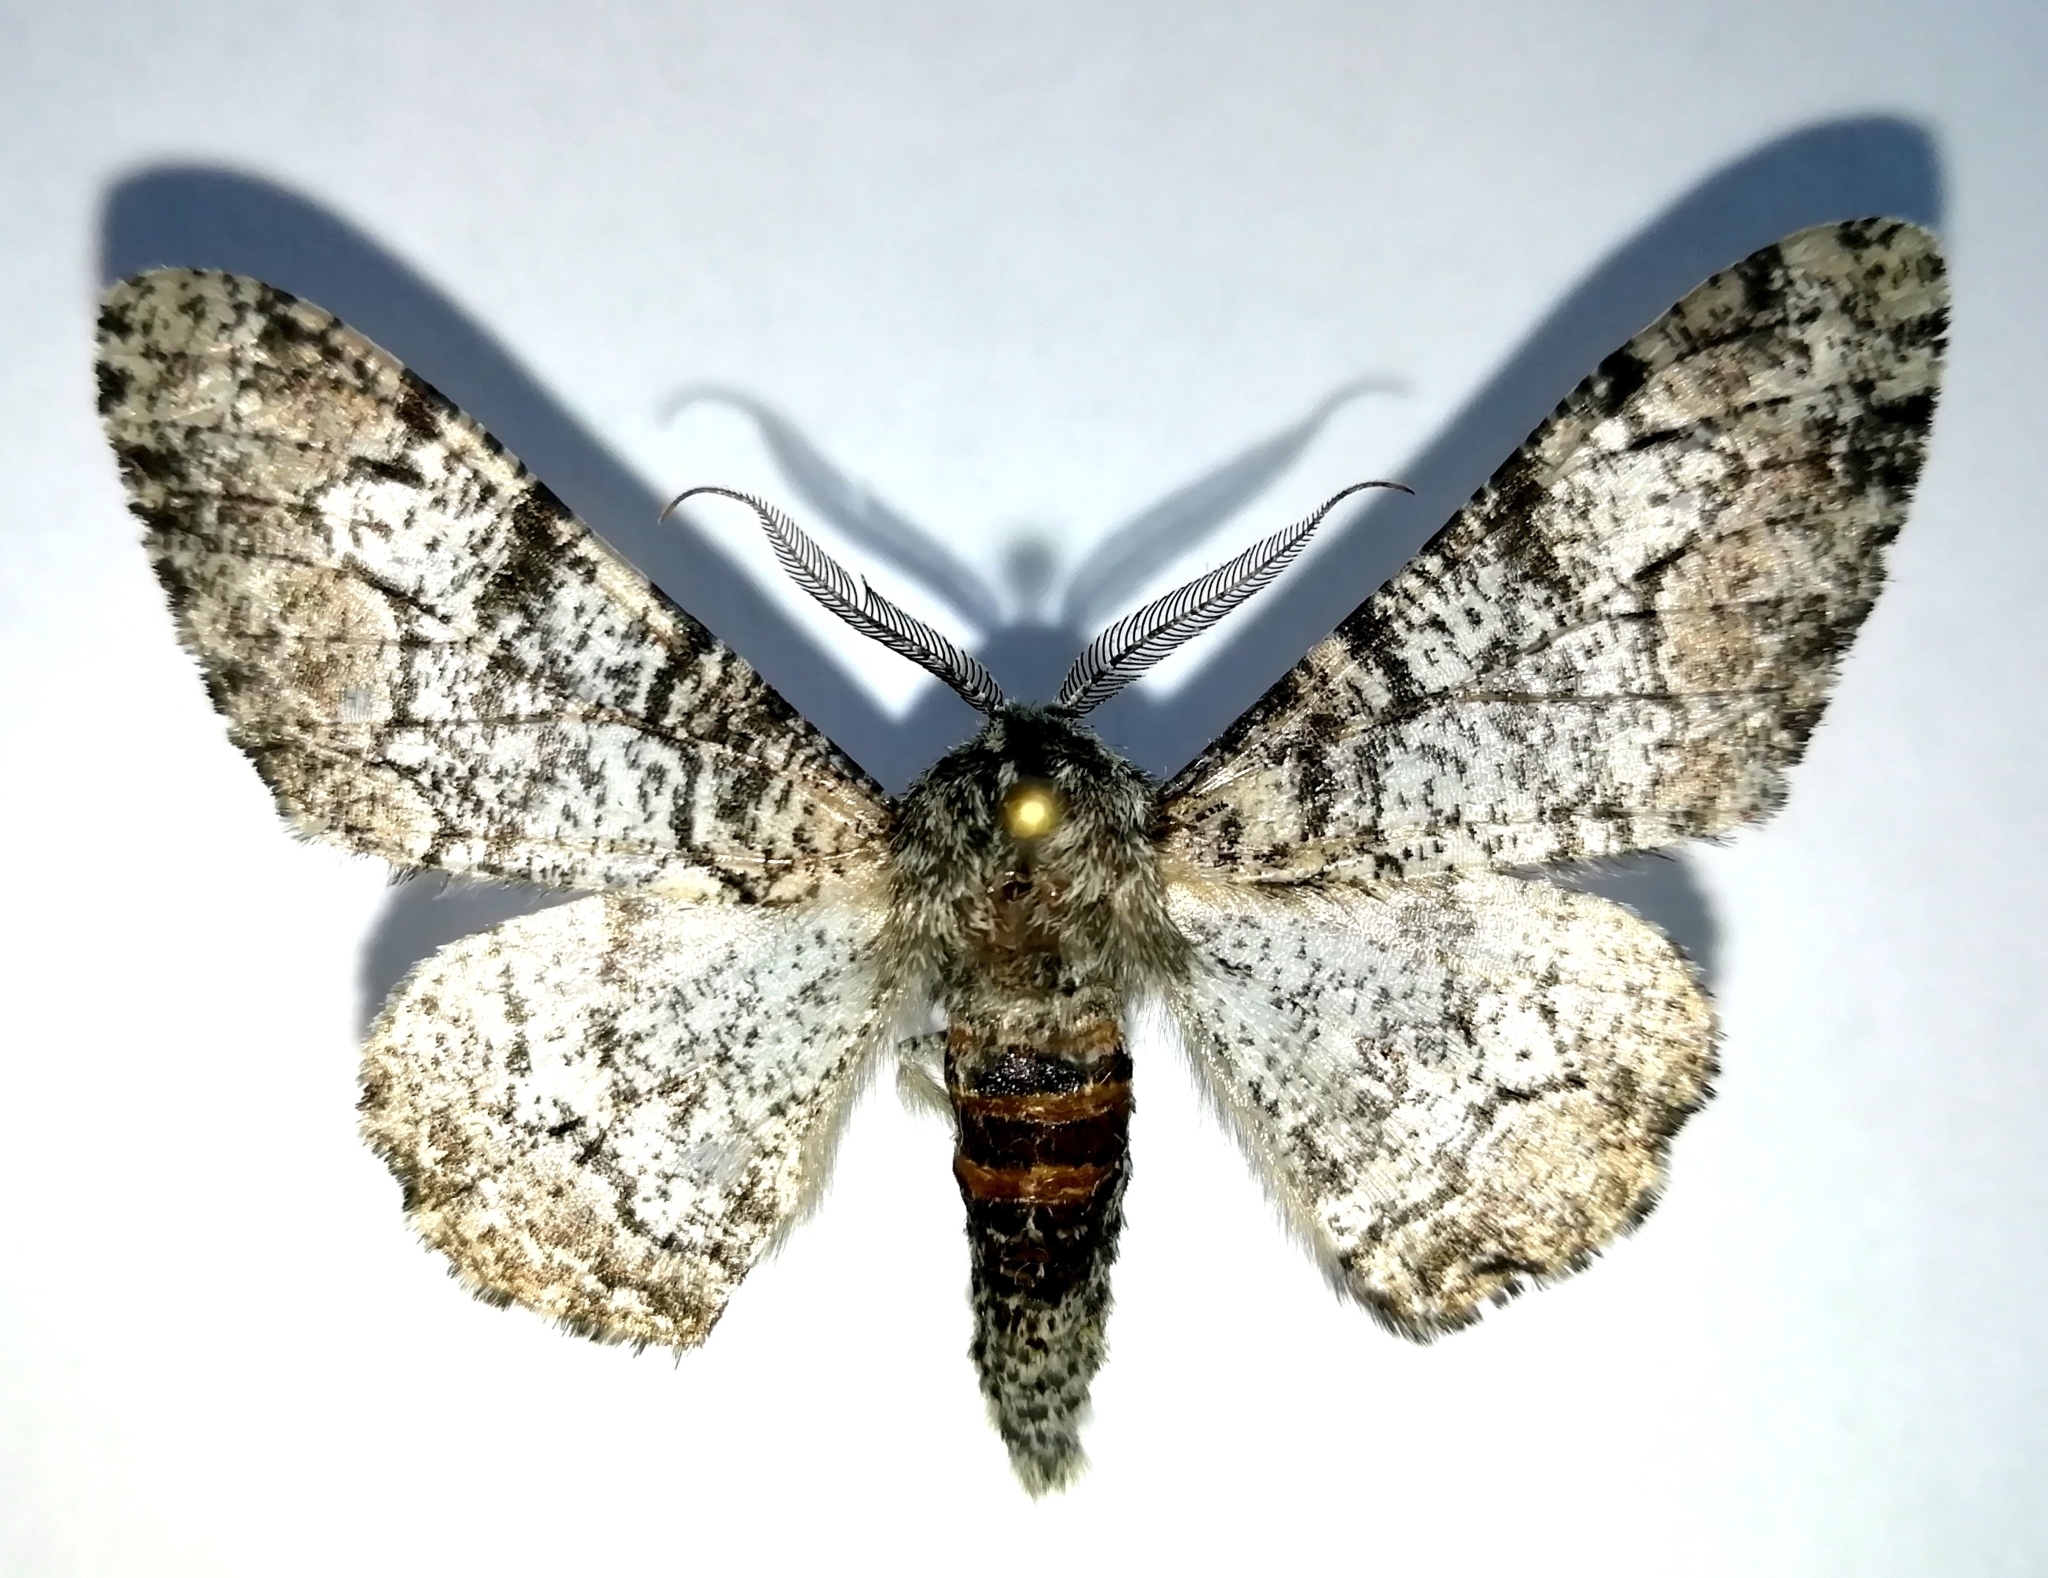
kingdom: Animalia
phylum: Arthropoda
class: Insecta
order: Lepidoptera
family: Geometridae
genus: Biston
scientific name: Biston betularia
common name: Peppered moth
